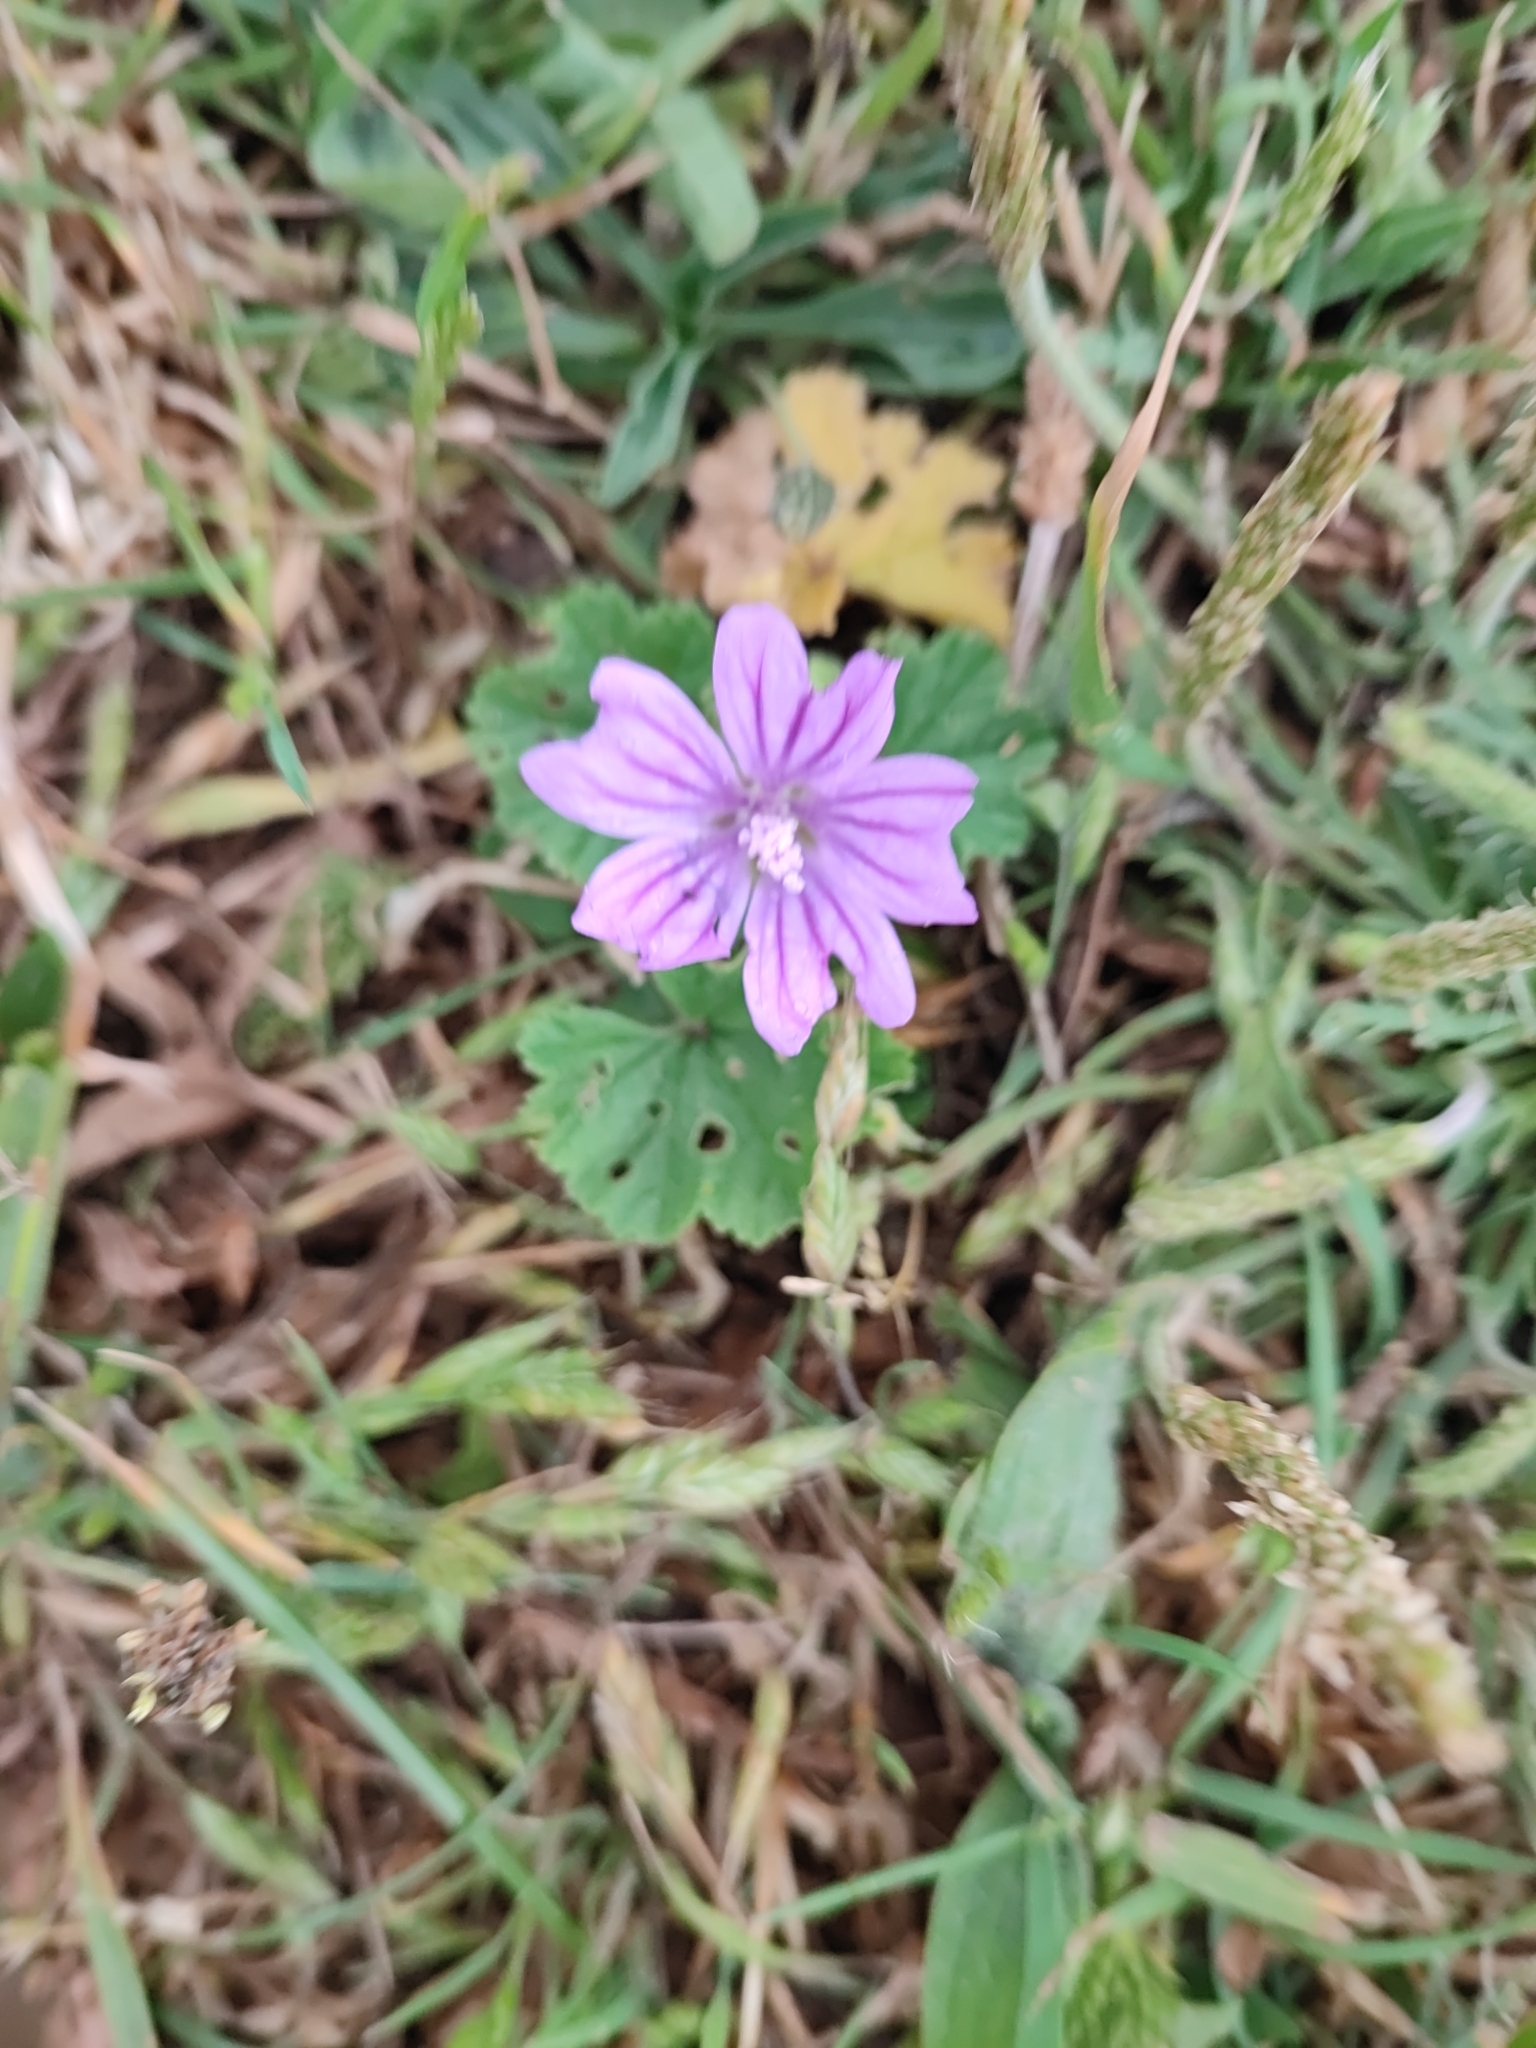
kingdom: Plantae
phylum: Tracheophyta
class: Magnoliopsida
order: Malvales
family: Malvaceae
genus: Malva
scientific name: Malva sylvestris
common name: Common mallow
